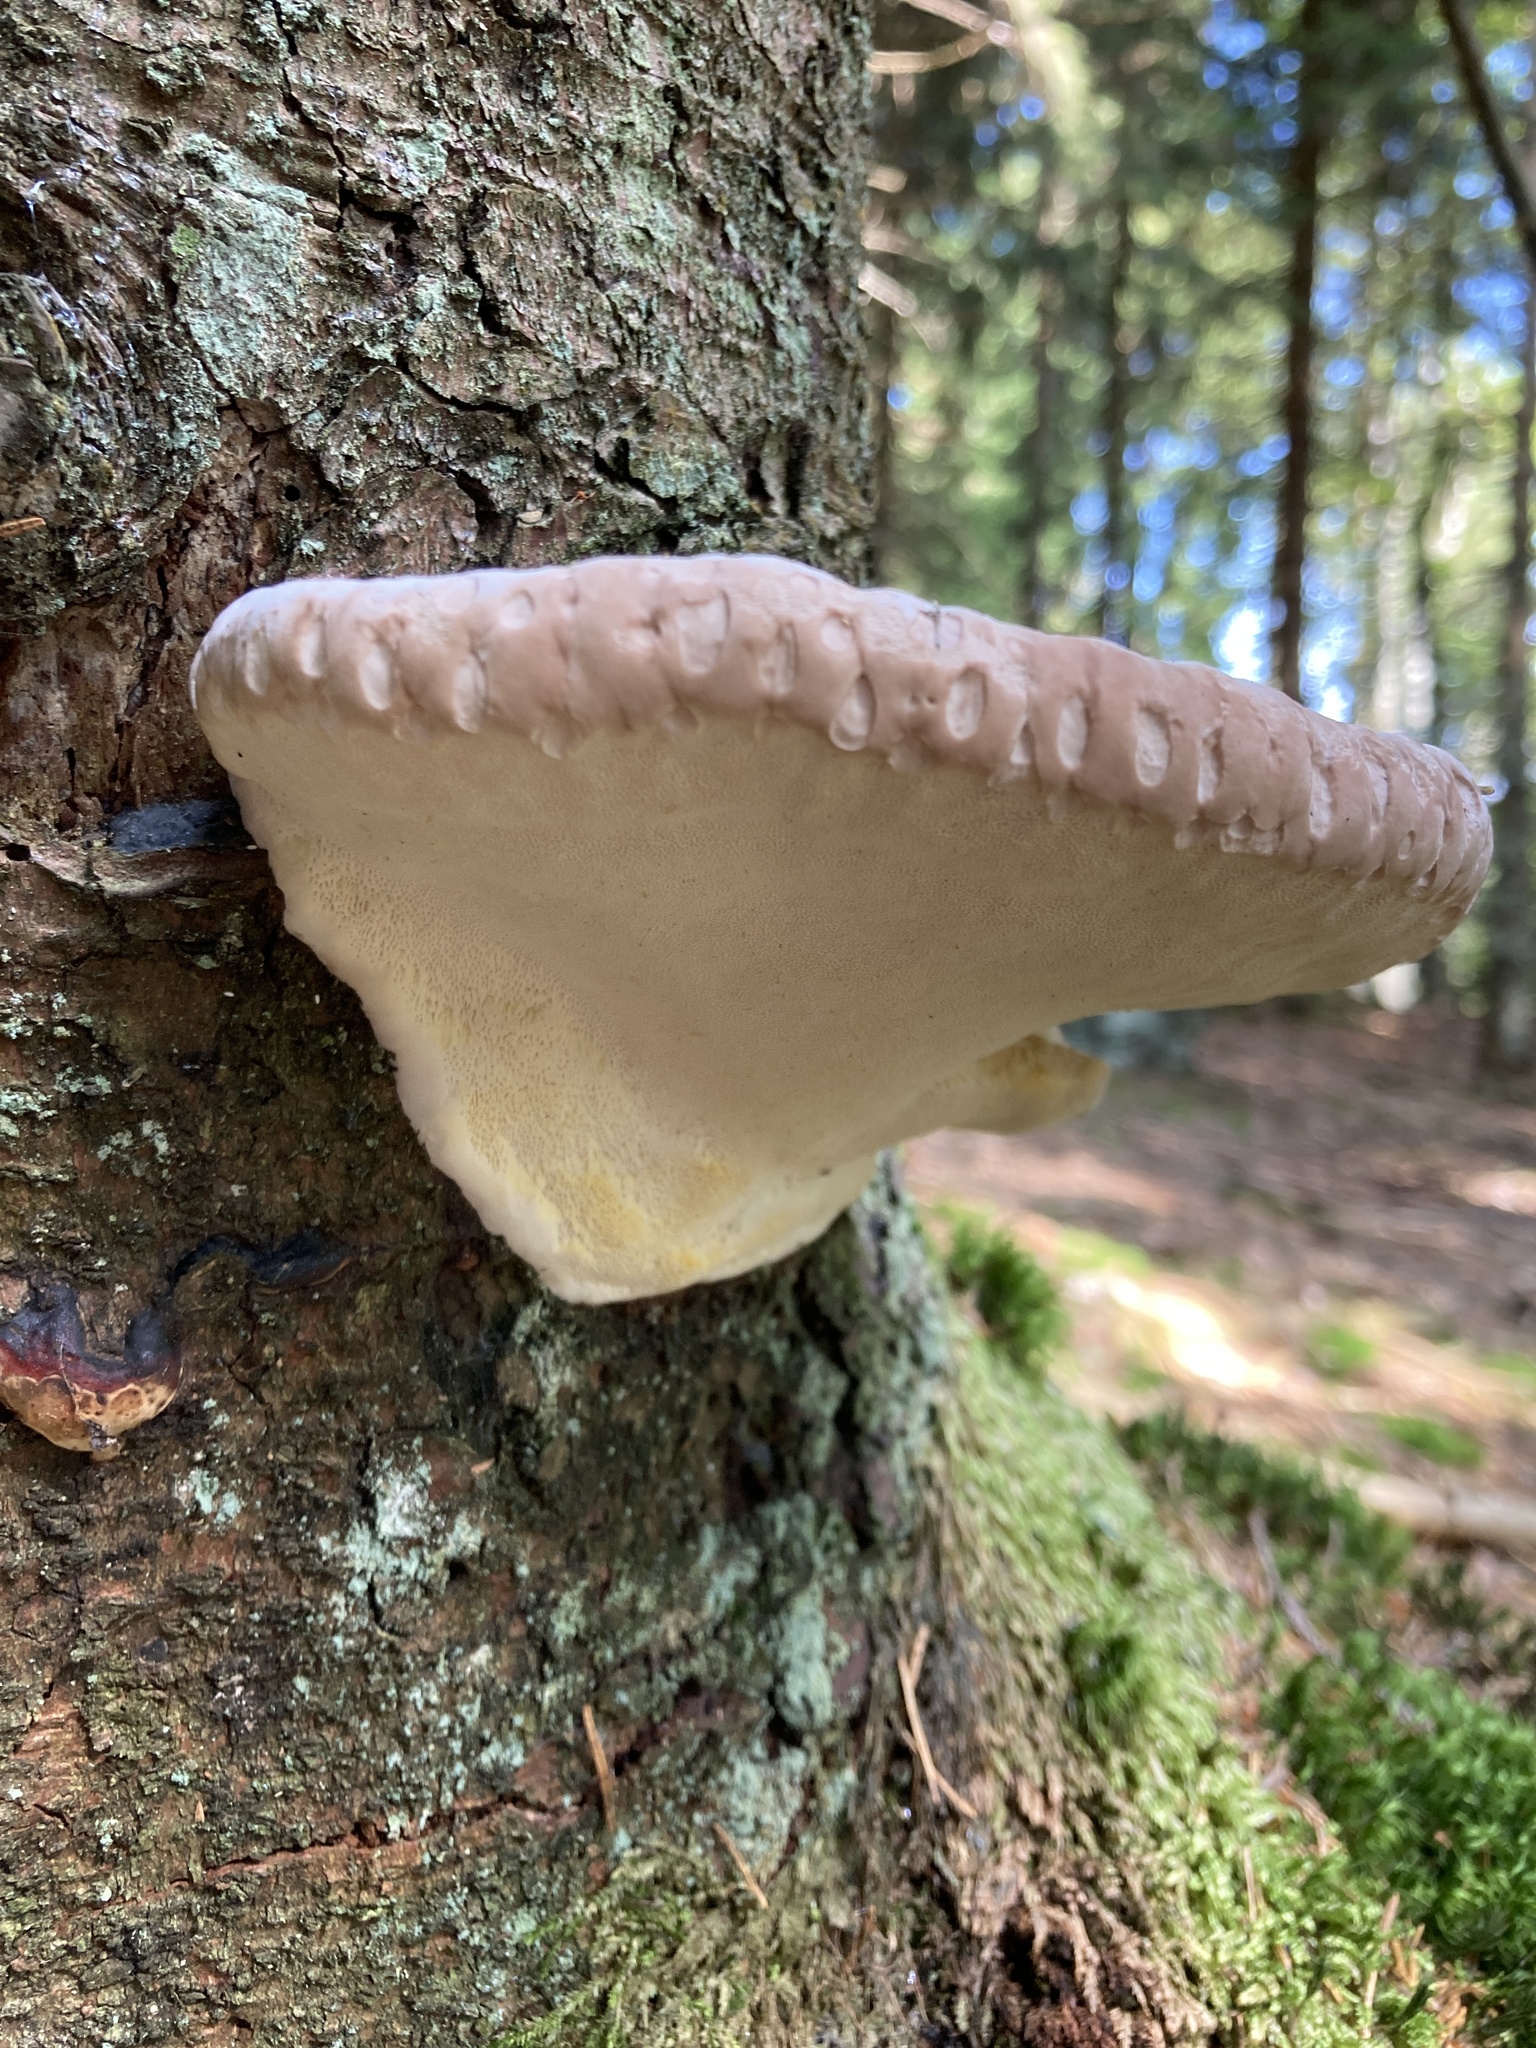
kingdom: Fungi
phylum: Basidiomycota
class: Agaricomycetes
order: Polyporales
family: Fomitopsidaceae
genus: Fomitopsis
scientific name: Fomitopsis pinicola
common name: Red-belted bracket
